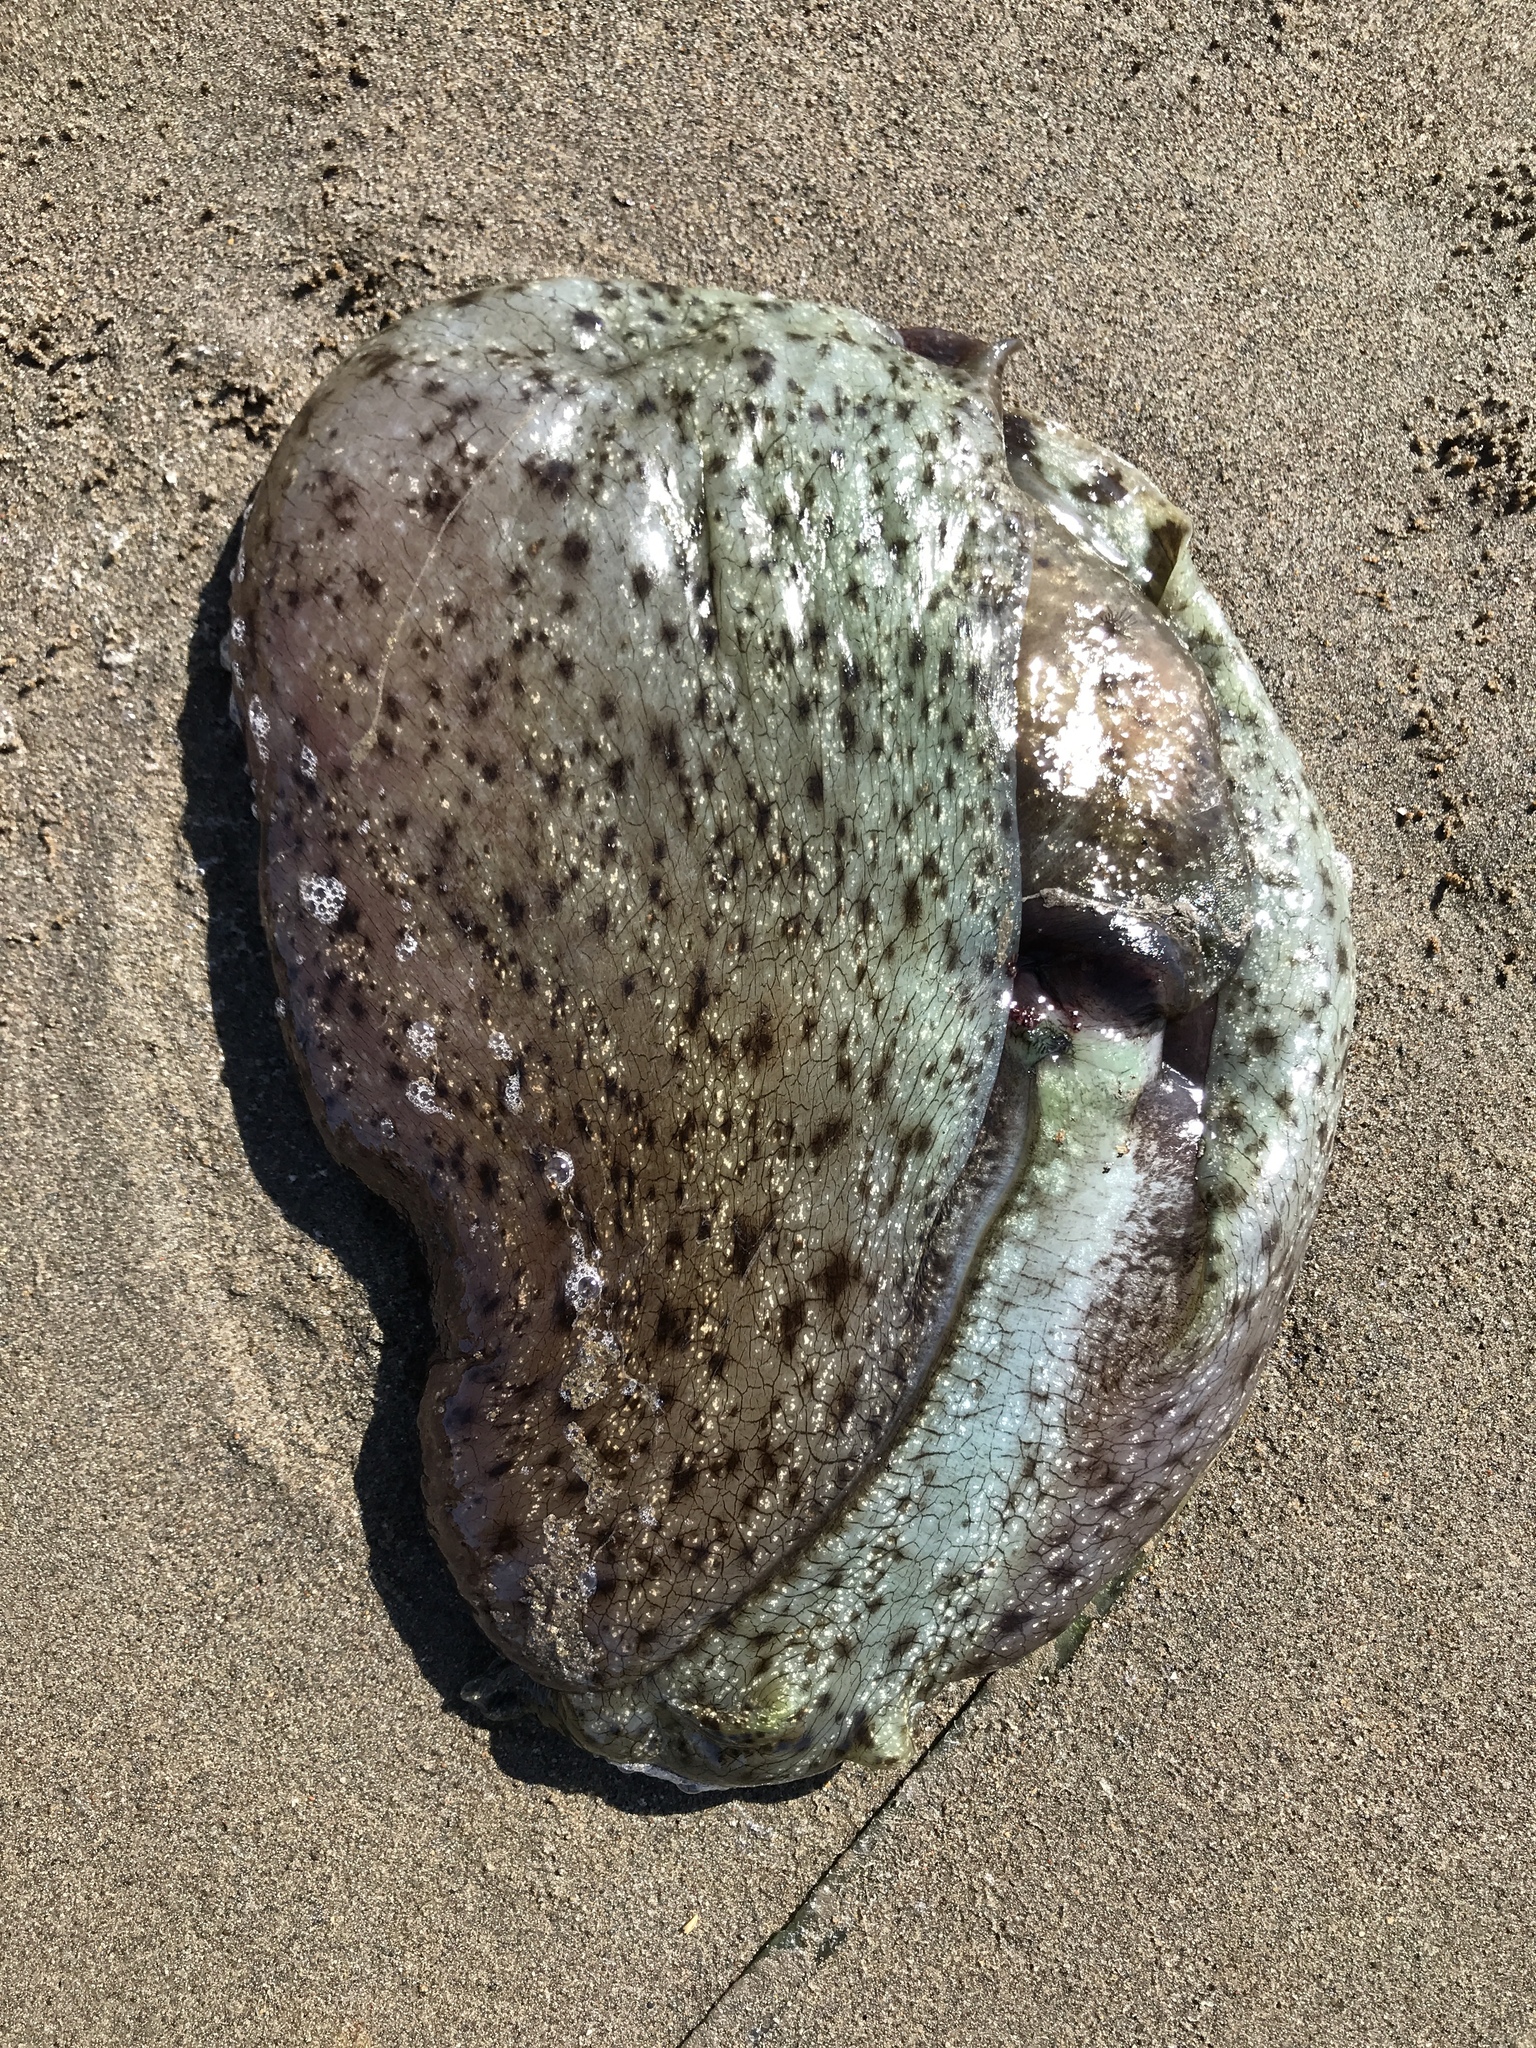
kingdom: Animalia
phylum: Mollusca
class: Gastropoda
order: Aplysiida
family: Aplysiidae
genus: Aplysia
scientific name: Aplysia californica
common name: California seahare
